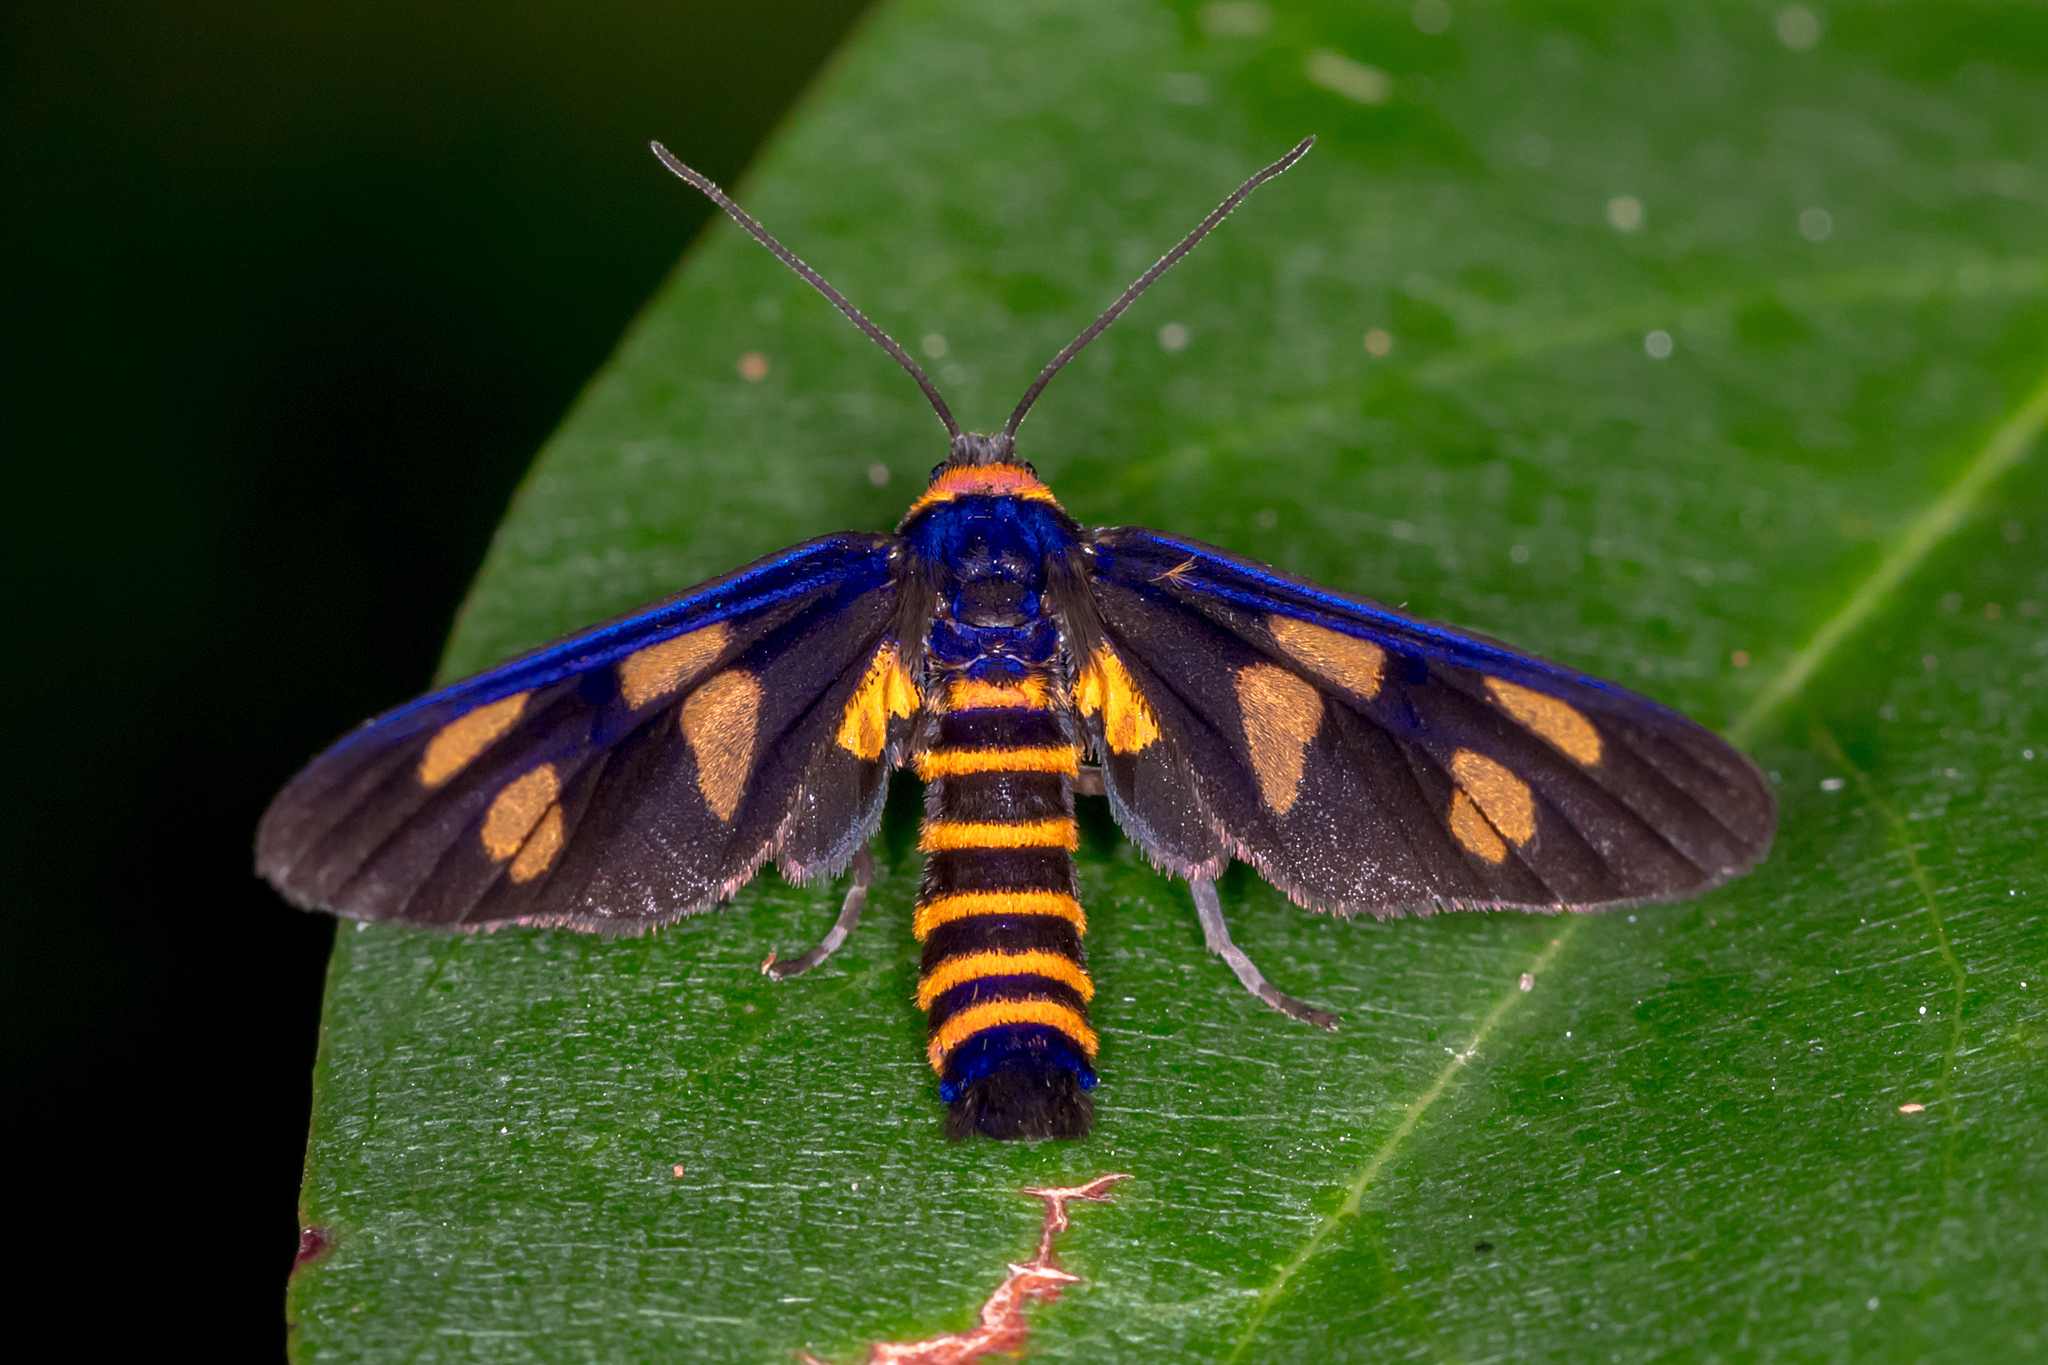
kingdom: Animalia
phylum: Arthropoda
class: Insecta
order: Lepidoptera
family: Erebidae
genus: Eressa
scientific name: Eressa angustipenna
